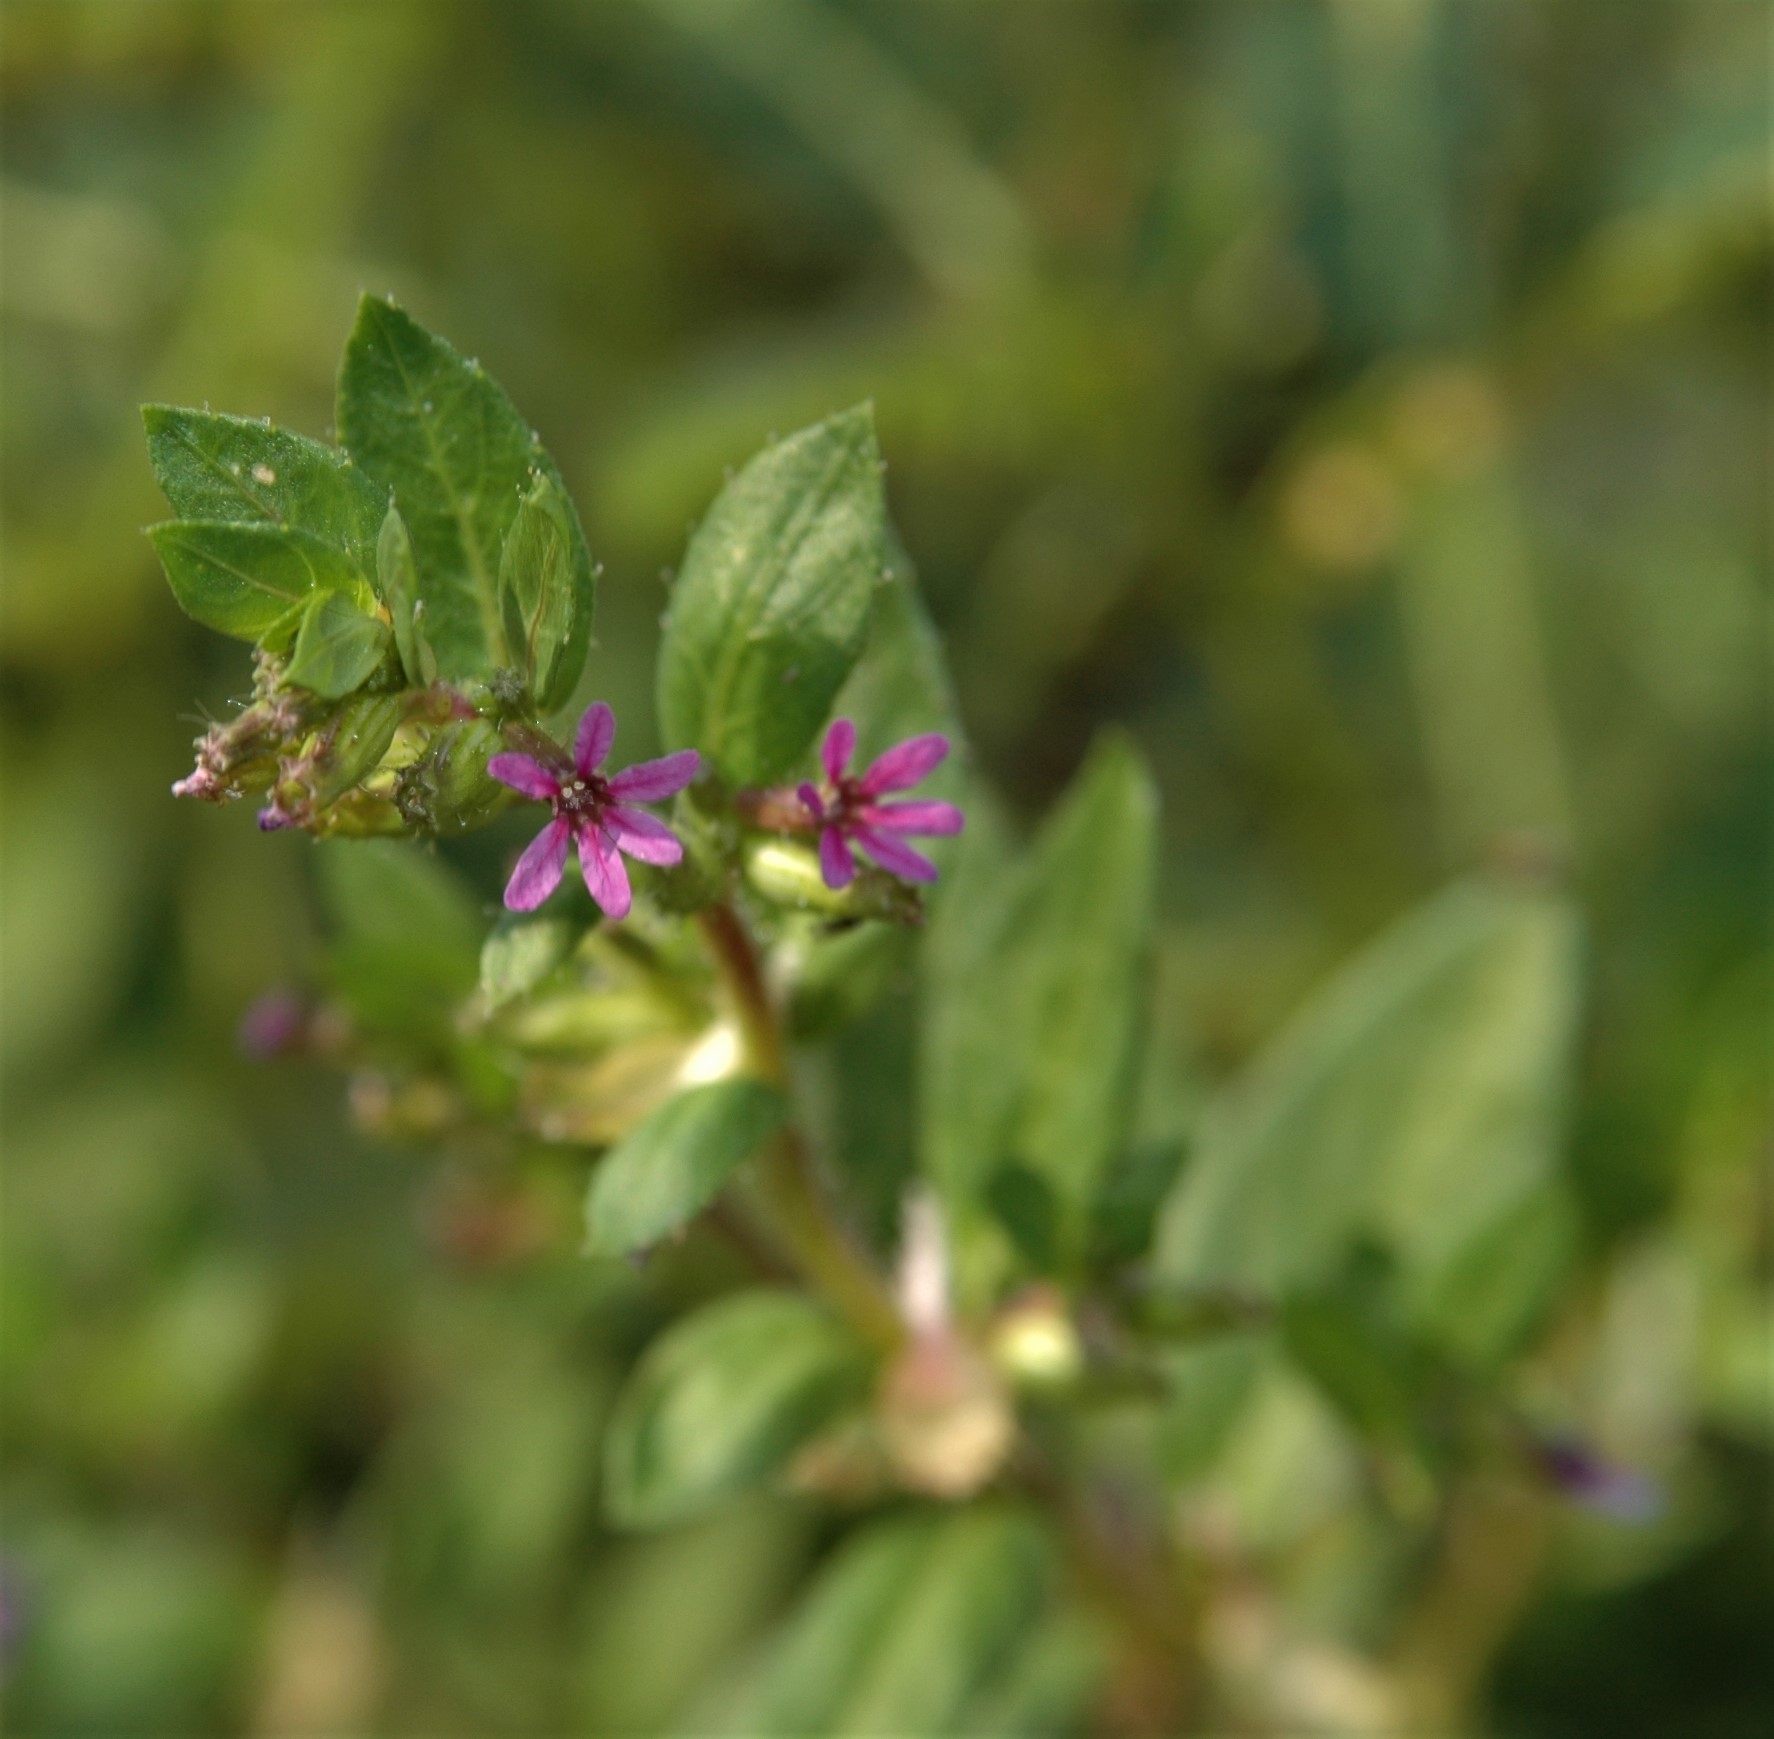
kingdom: Plantae
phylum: Tracheophyta
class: Magnoliopsida
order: Myrtales
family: Lythraceae
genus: Cuphea
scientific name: Cuphea carthagenensis
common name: Colombian waxweed
